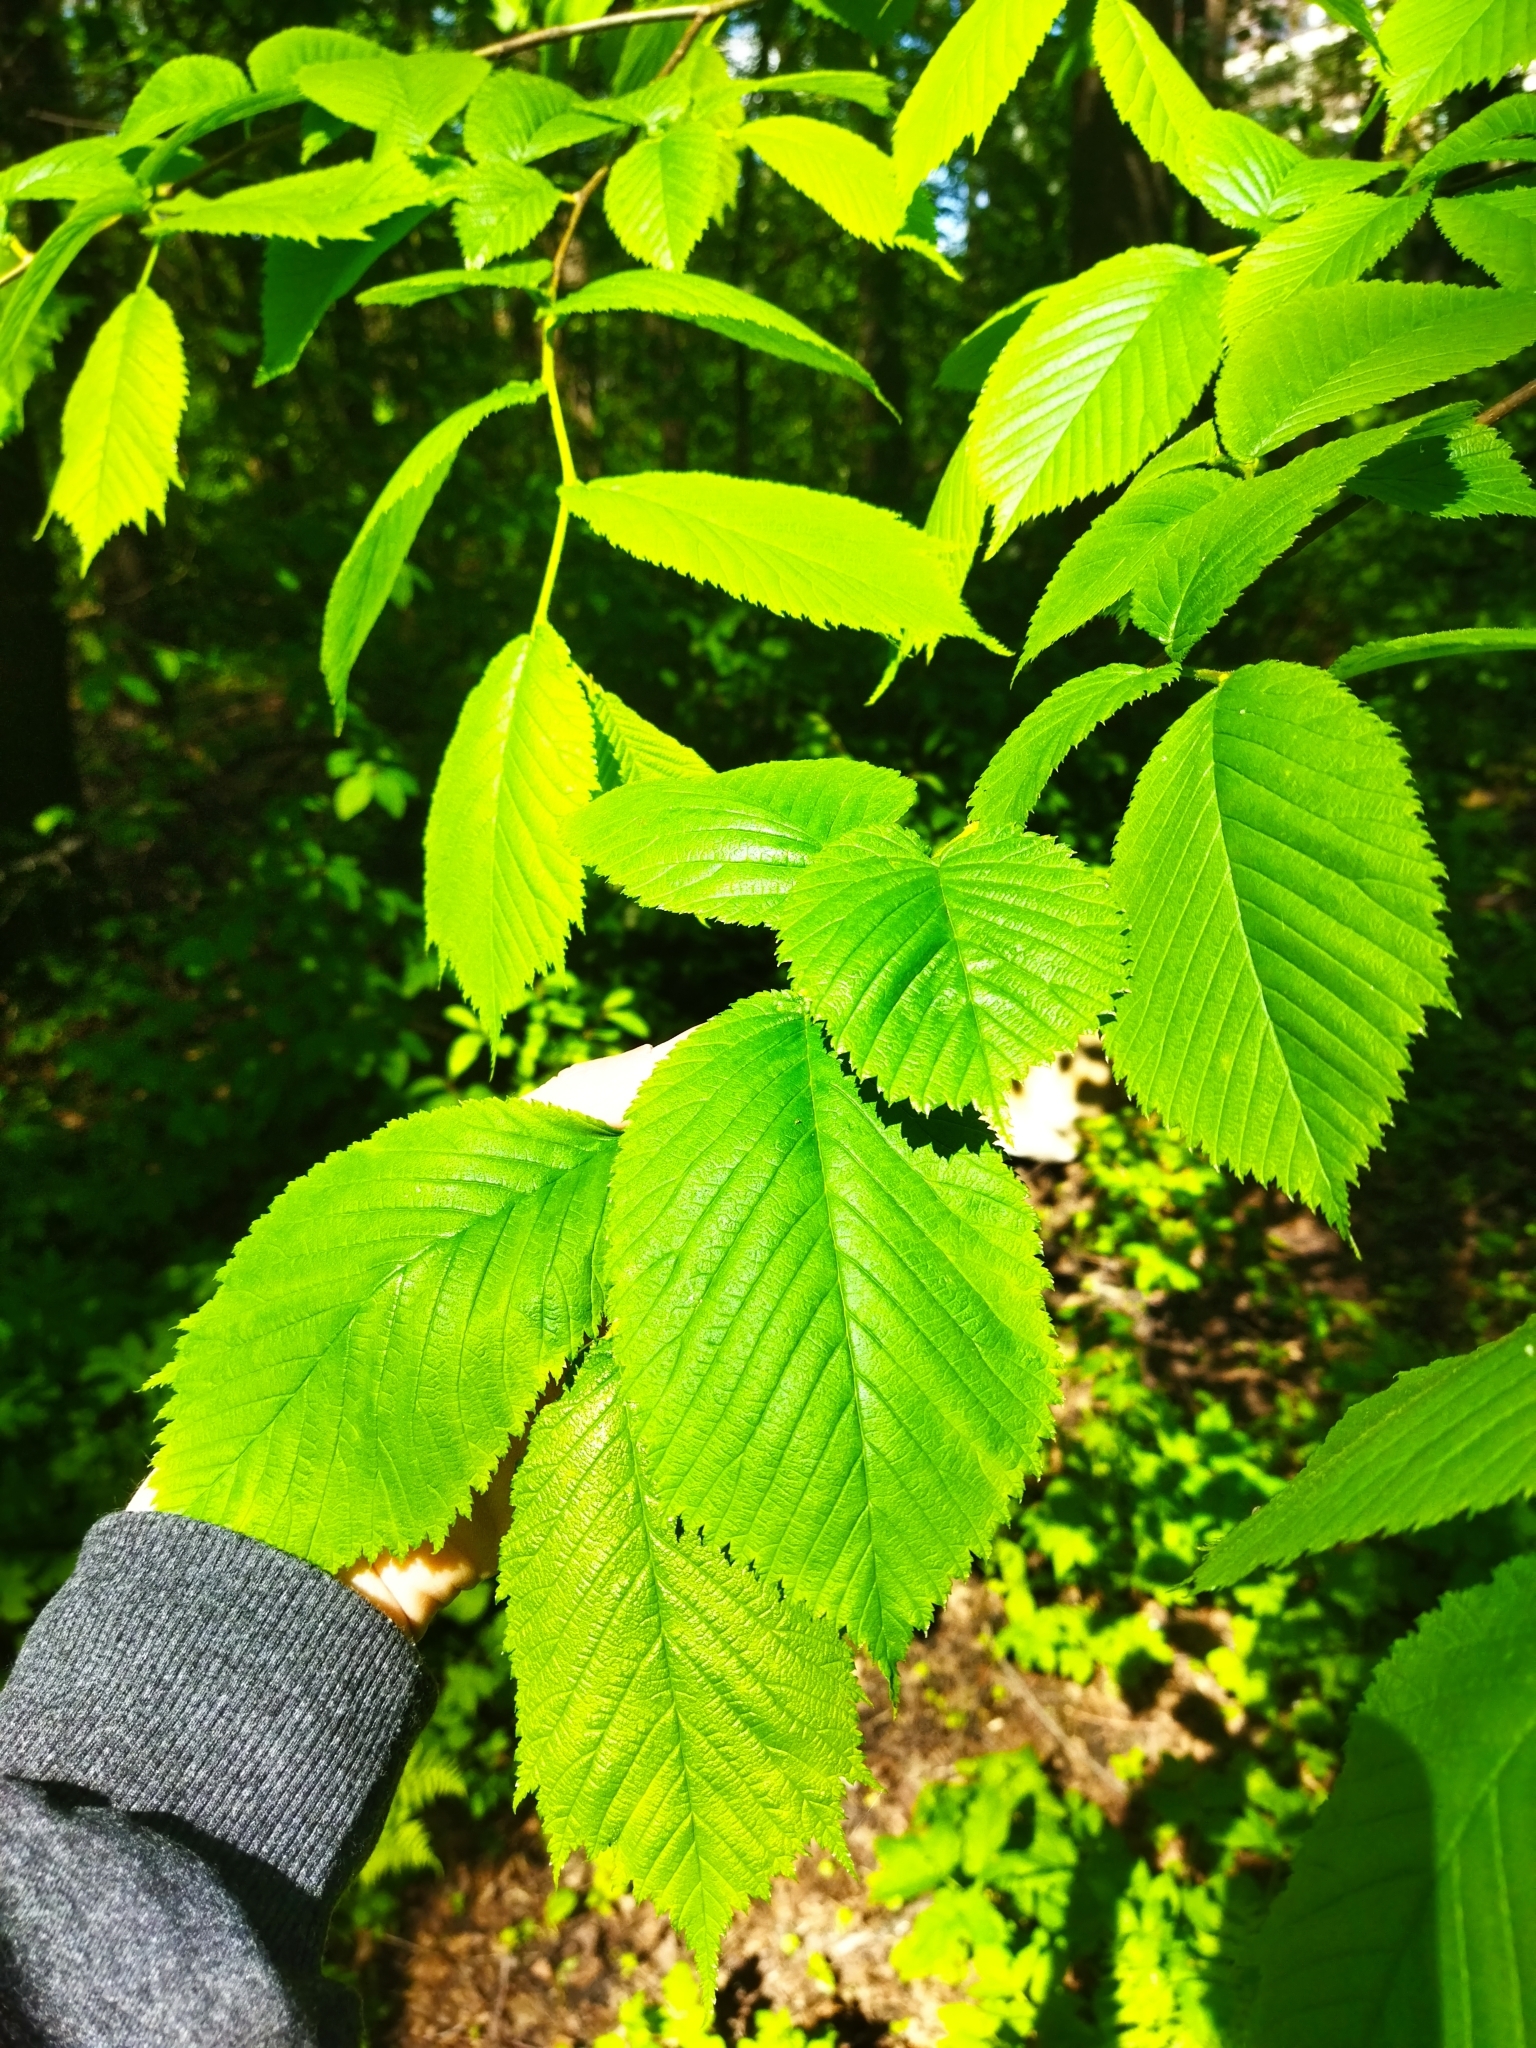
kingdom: Plantae
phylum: Tracheophyta
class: Magnoliopsida
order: Rosales
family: Ulmaceae
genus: Ulmus
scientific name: Ulmus glabra
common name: Wych elm
